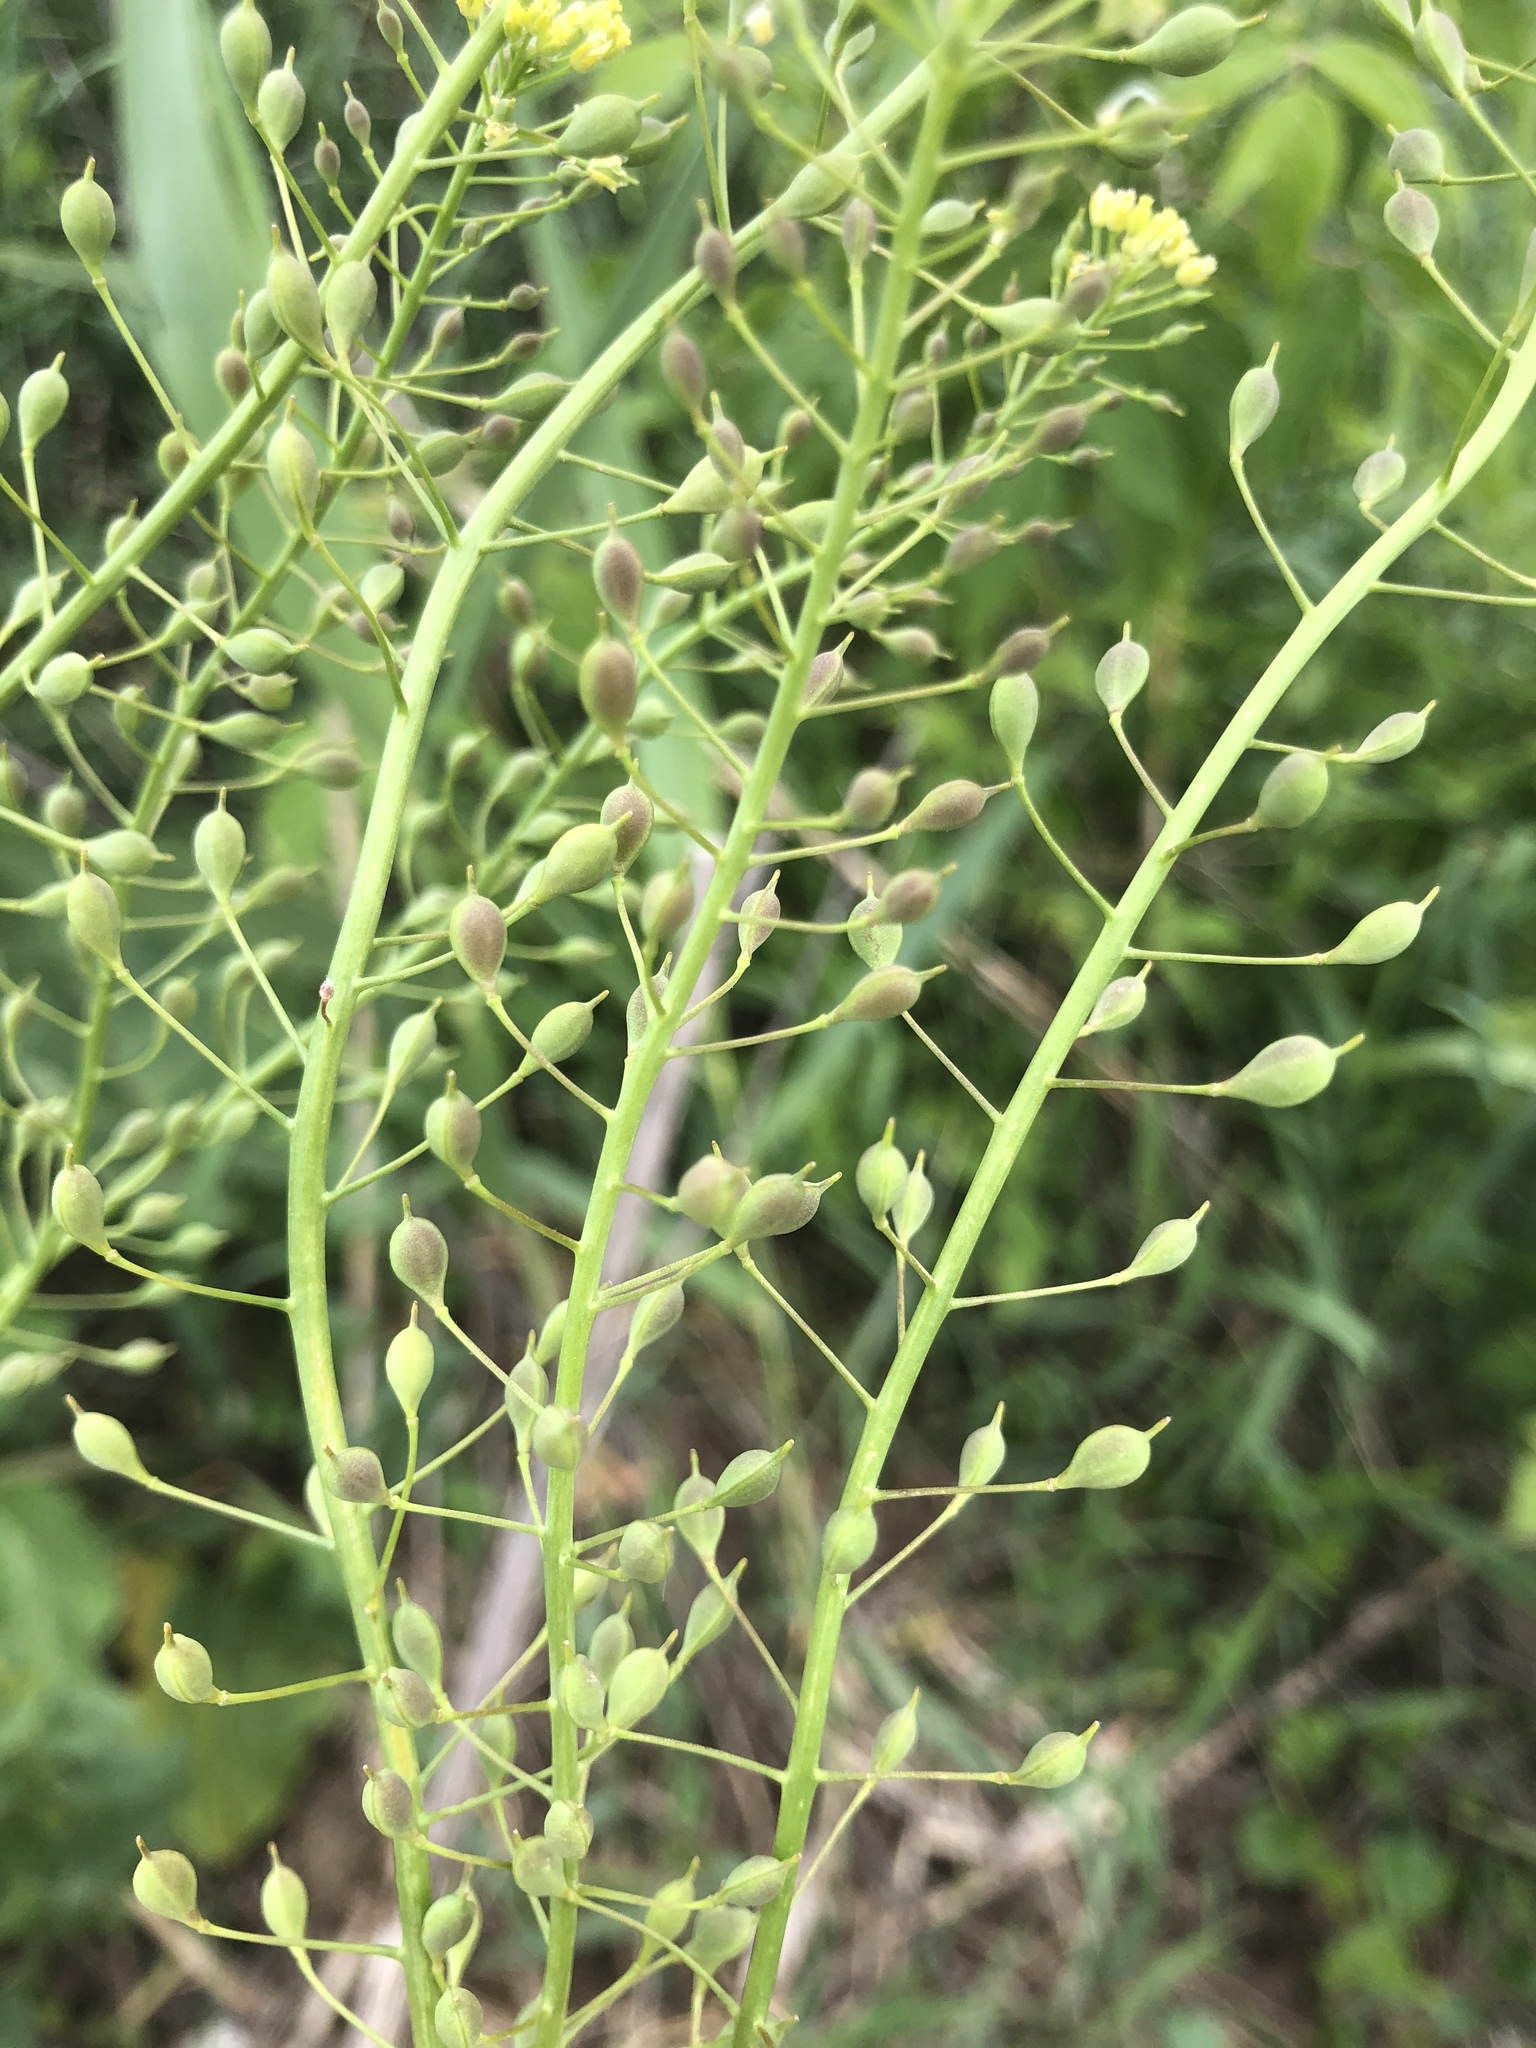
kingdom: Plantae
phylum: Tracheophyta
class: Magnoliopsida
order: Brassicales
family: Brassicaceae
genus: Camelina
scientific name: Camelina microcarpa
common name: Lesser gold-of-pleasure
